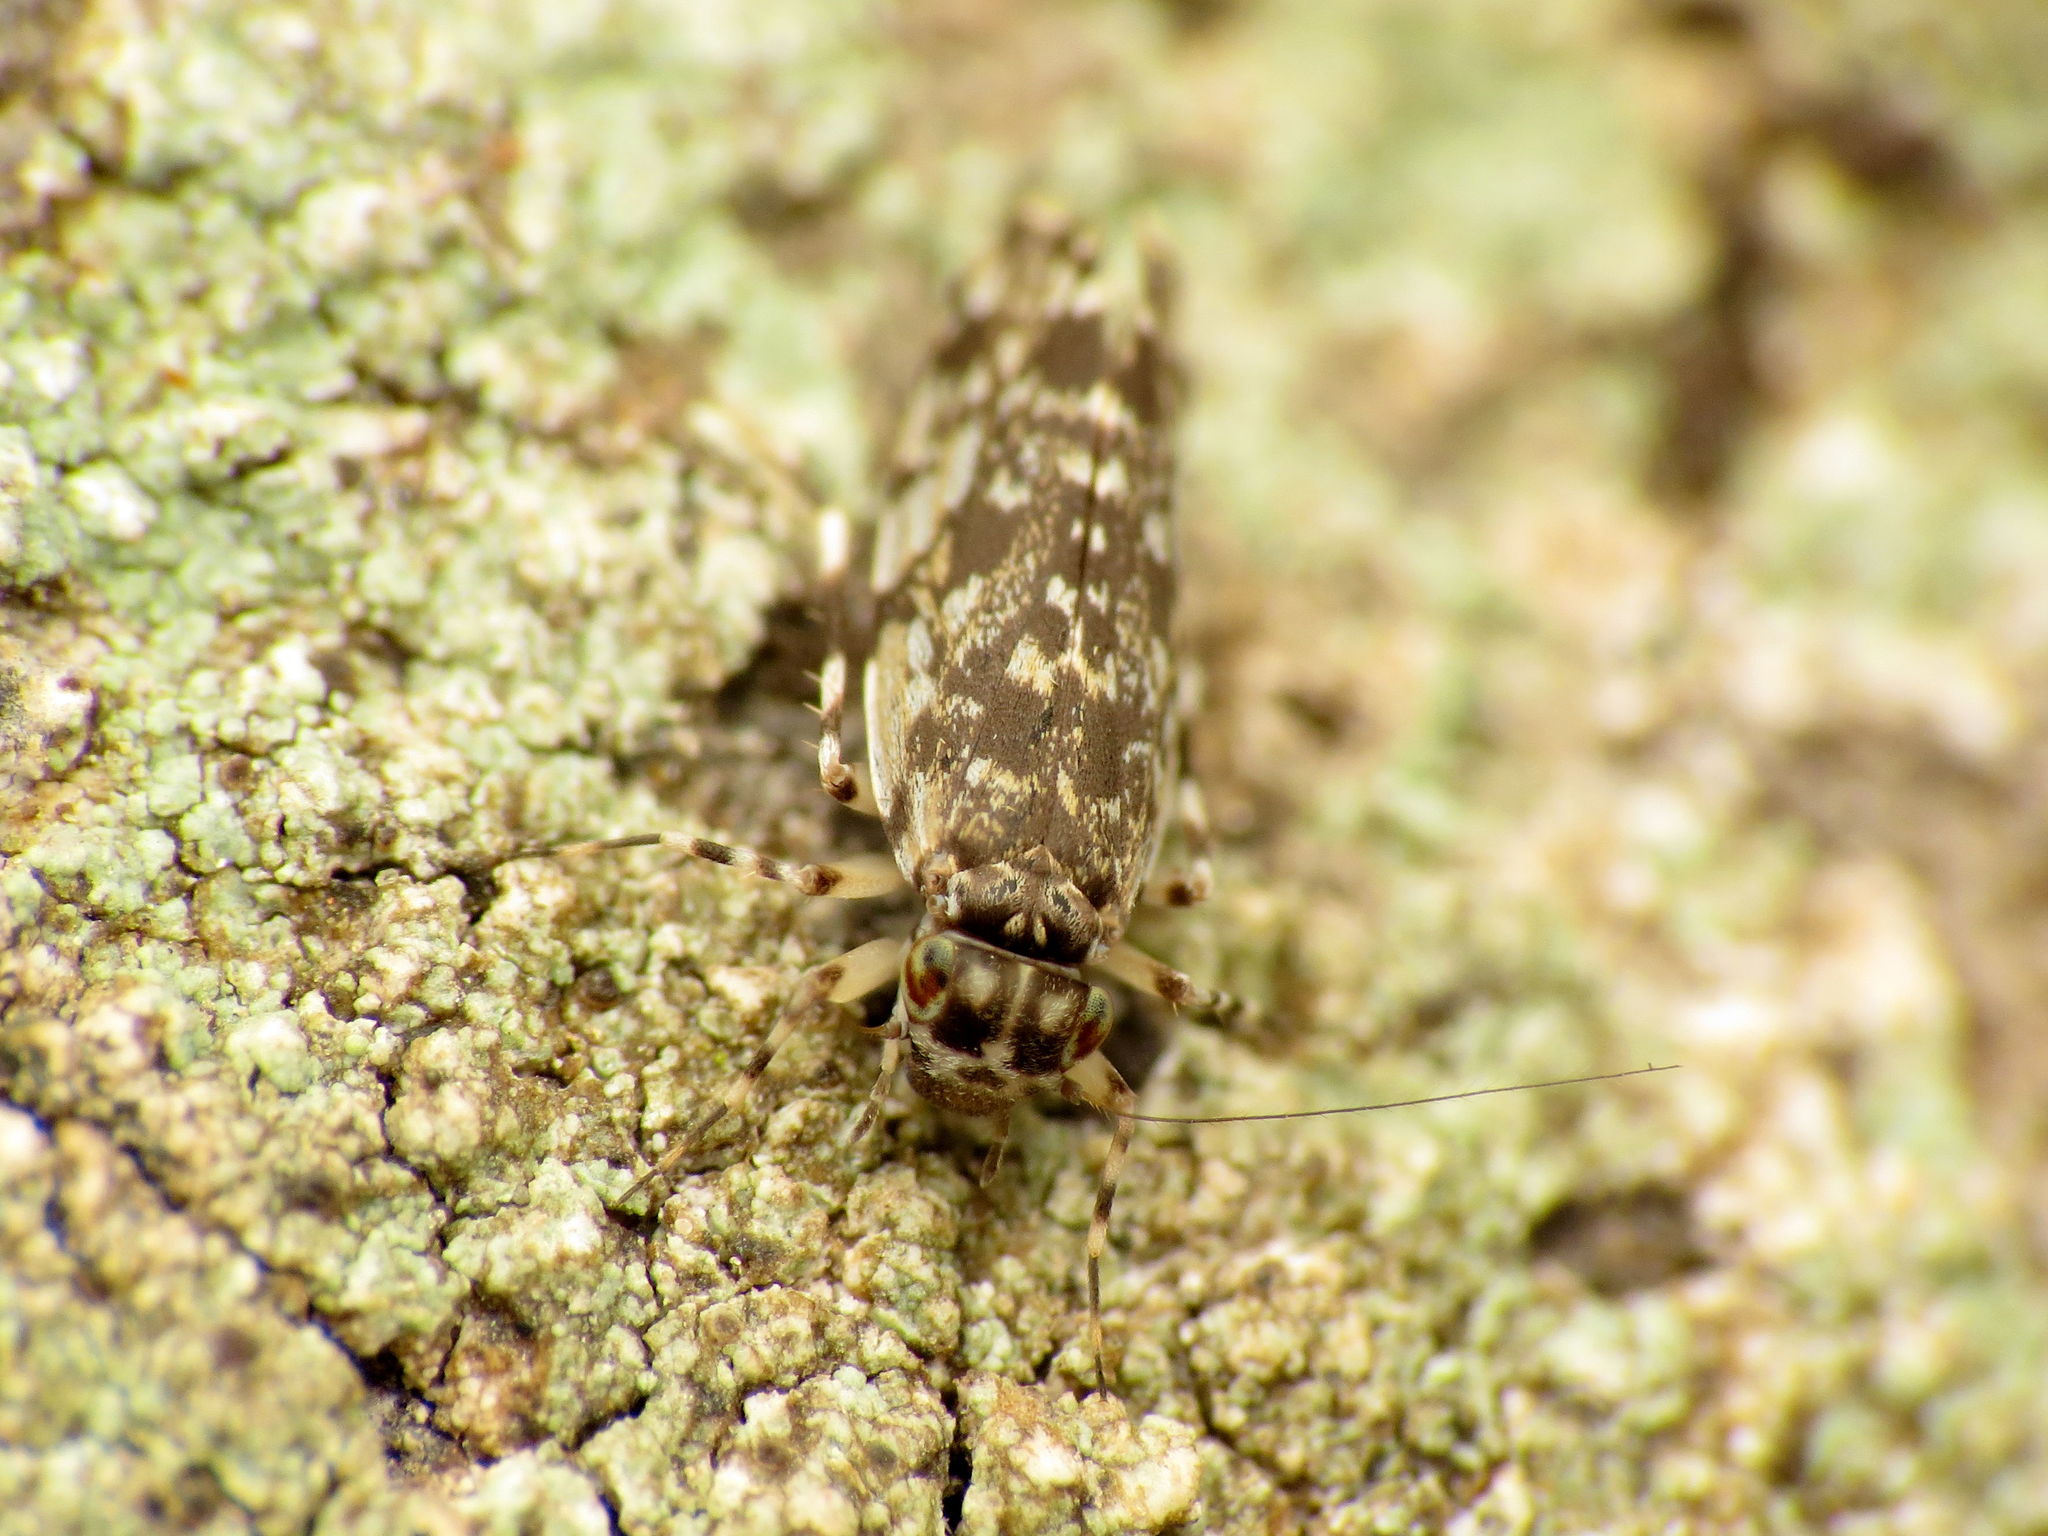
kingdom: Animalia
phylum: Arthropoda
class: Insecta
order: Psocodea
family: Amphientomidae
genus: Stimulopalpus
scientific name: Stimulopalpus japonicus
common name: Tropical bark louse
